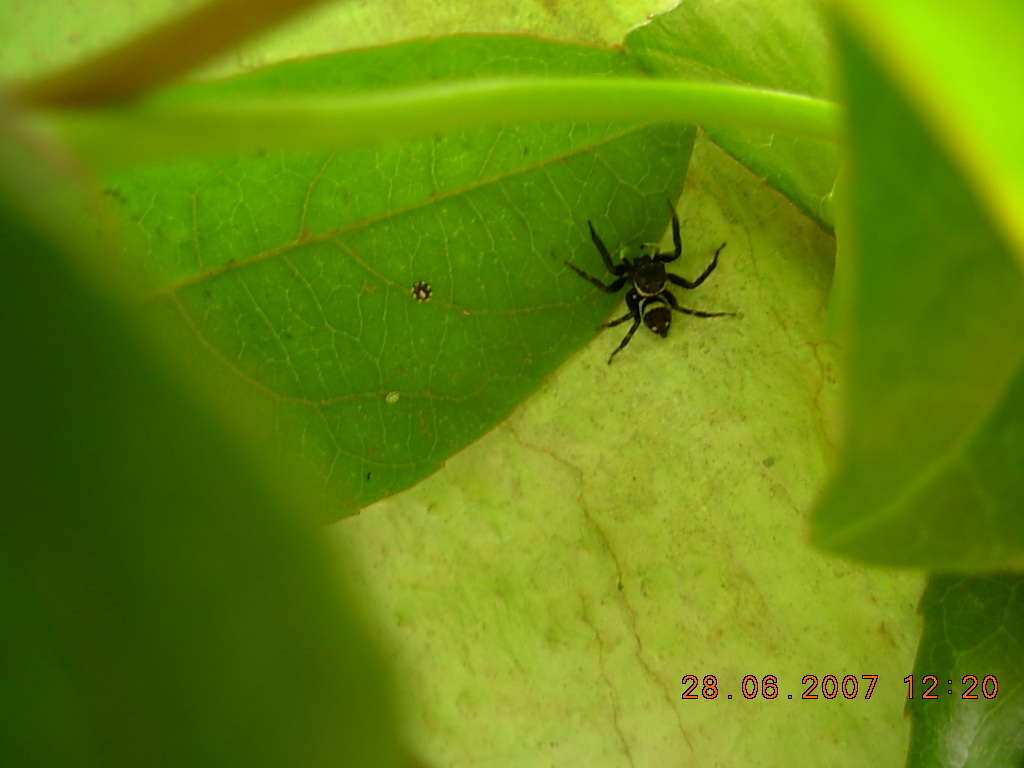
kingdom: Animalia
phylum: Arthropoda
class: Arachnida
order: Araneae
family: Salticidae
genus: Hasarius
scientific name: Hasarius adansoni
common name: Jumping spider
